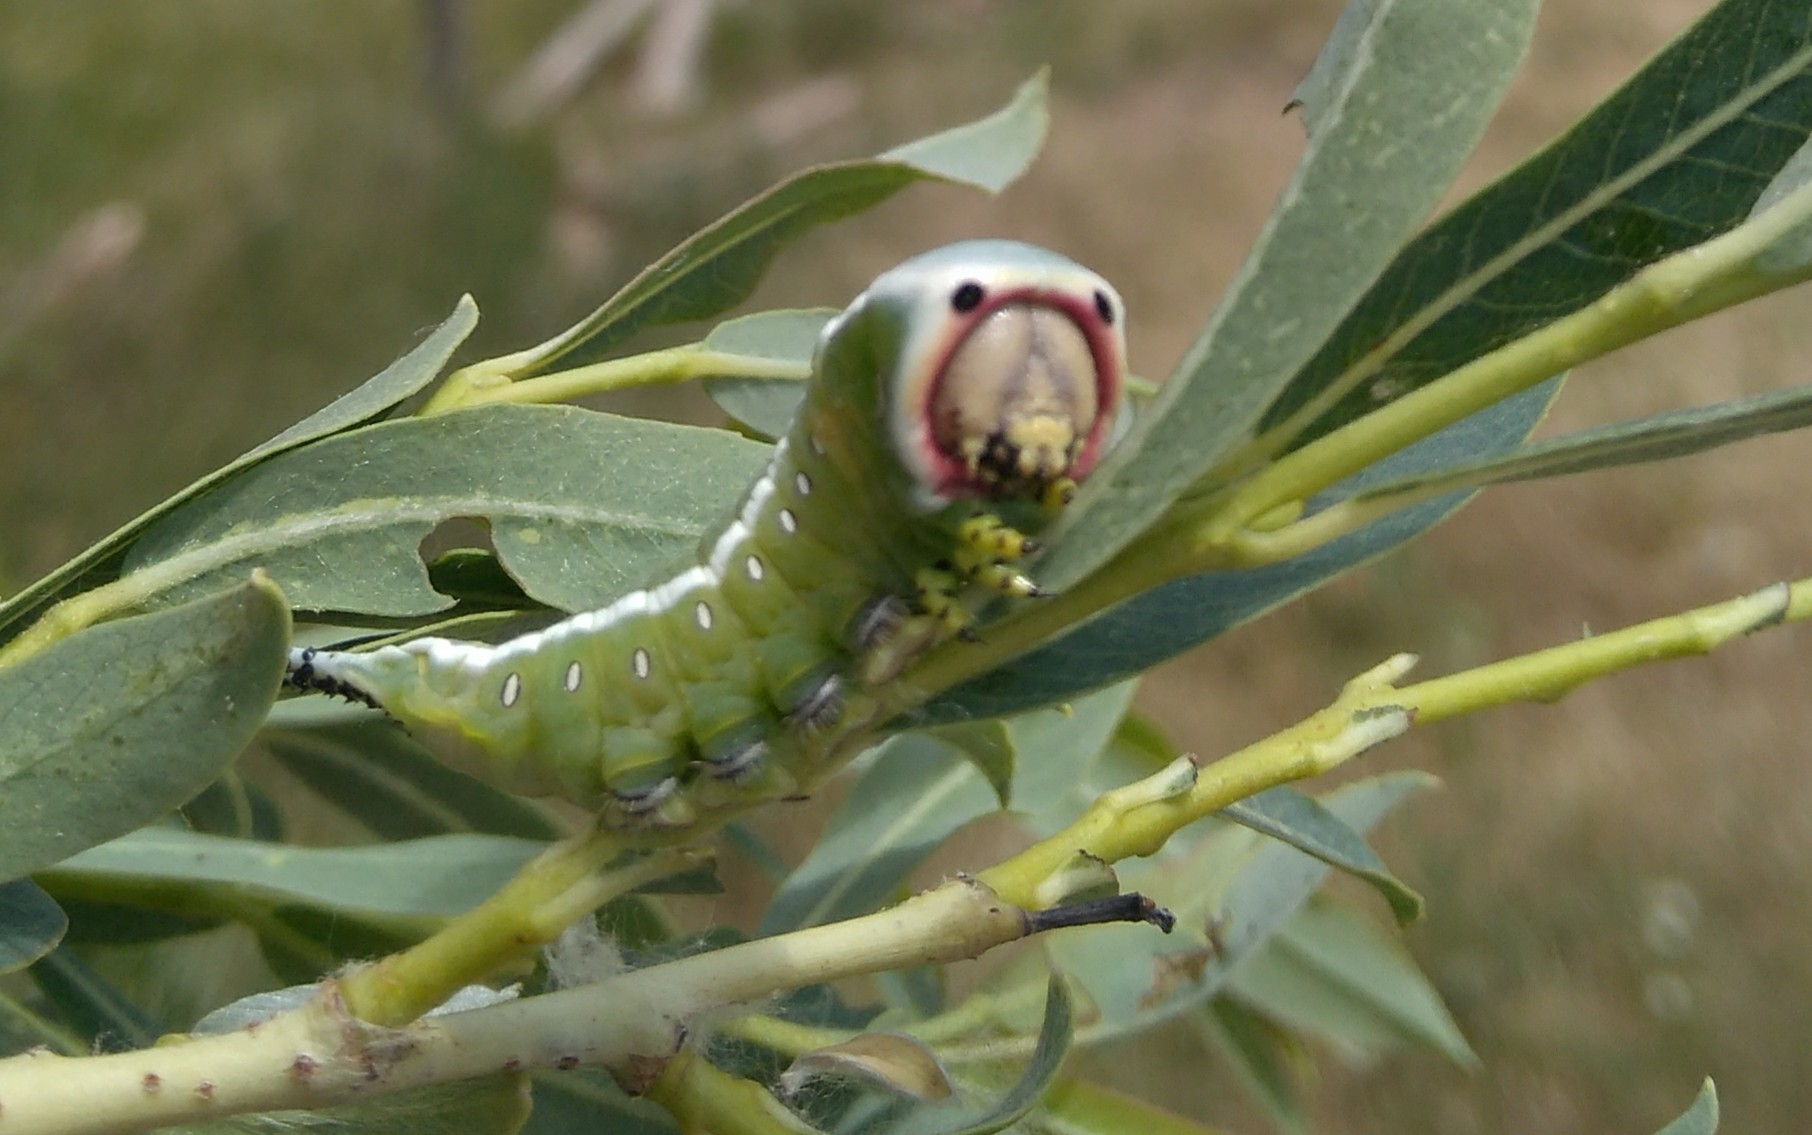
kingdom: Animalia
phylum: Arthropoda
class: Insecta
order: Lepidoptera
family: Notodontidae
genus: Cerura
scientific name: Cerura iberica
